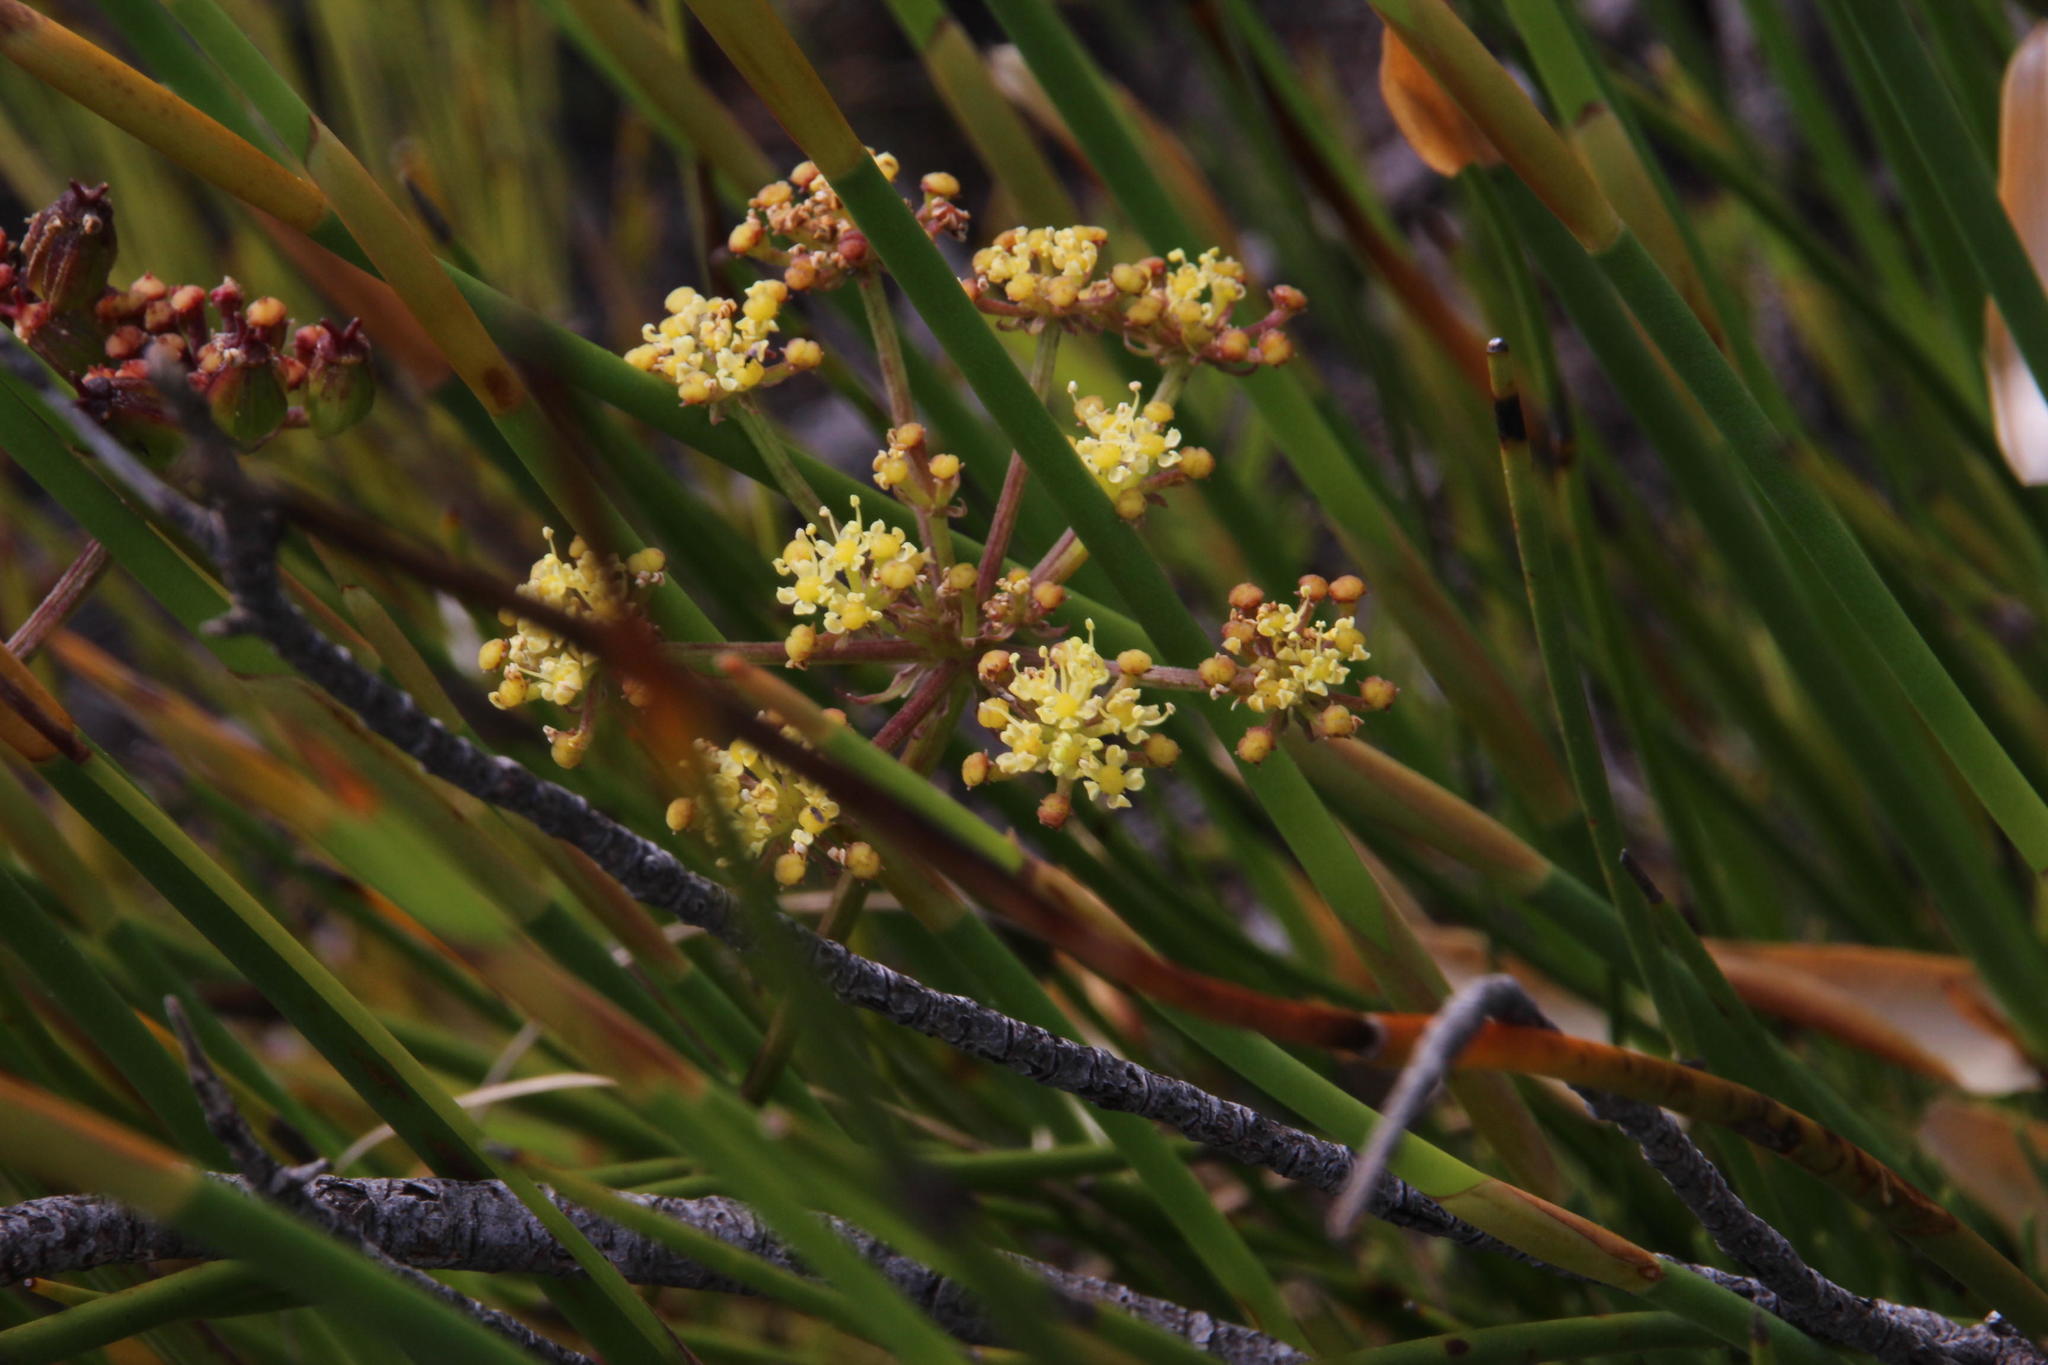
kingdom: Plantae
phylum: Tracheophyta
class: Magnoliopsida
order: Apiales
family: Apiaceae
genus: Nanobubon
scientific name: Nanobubon strictum
